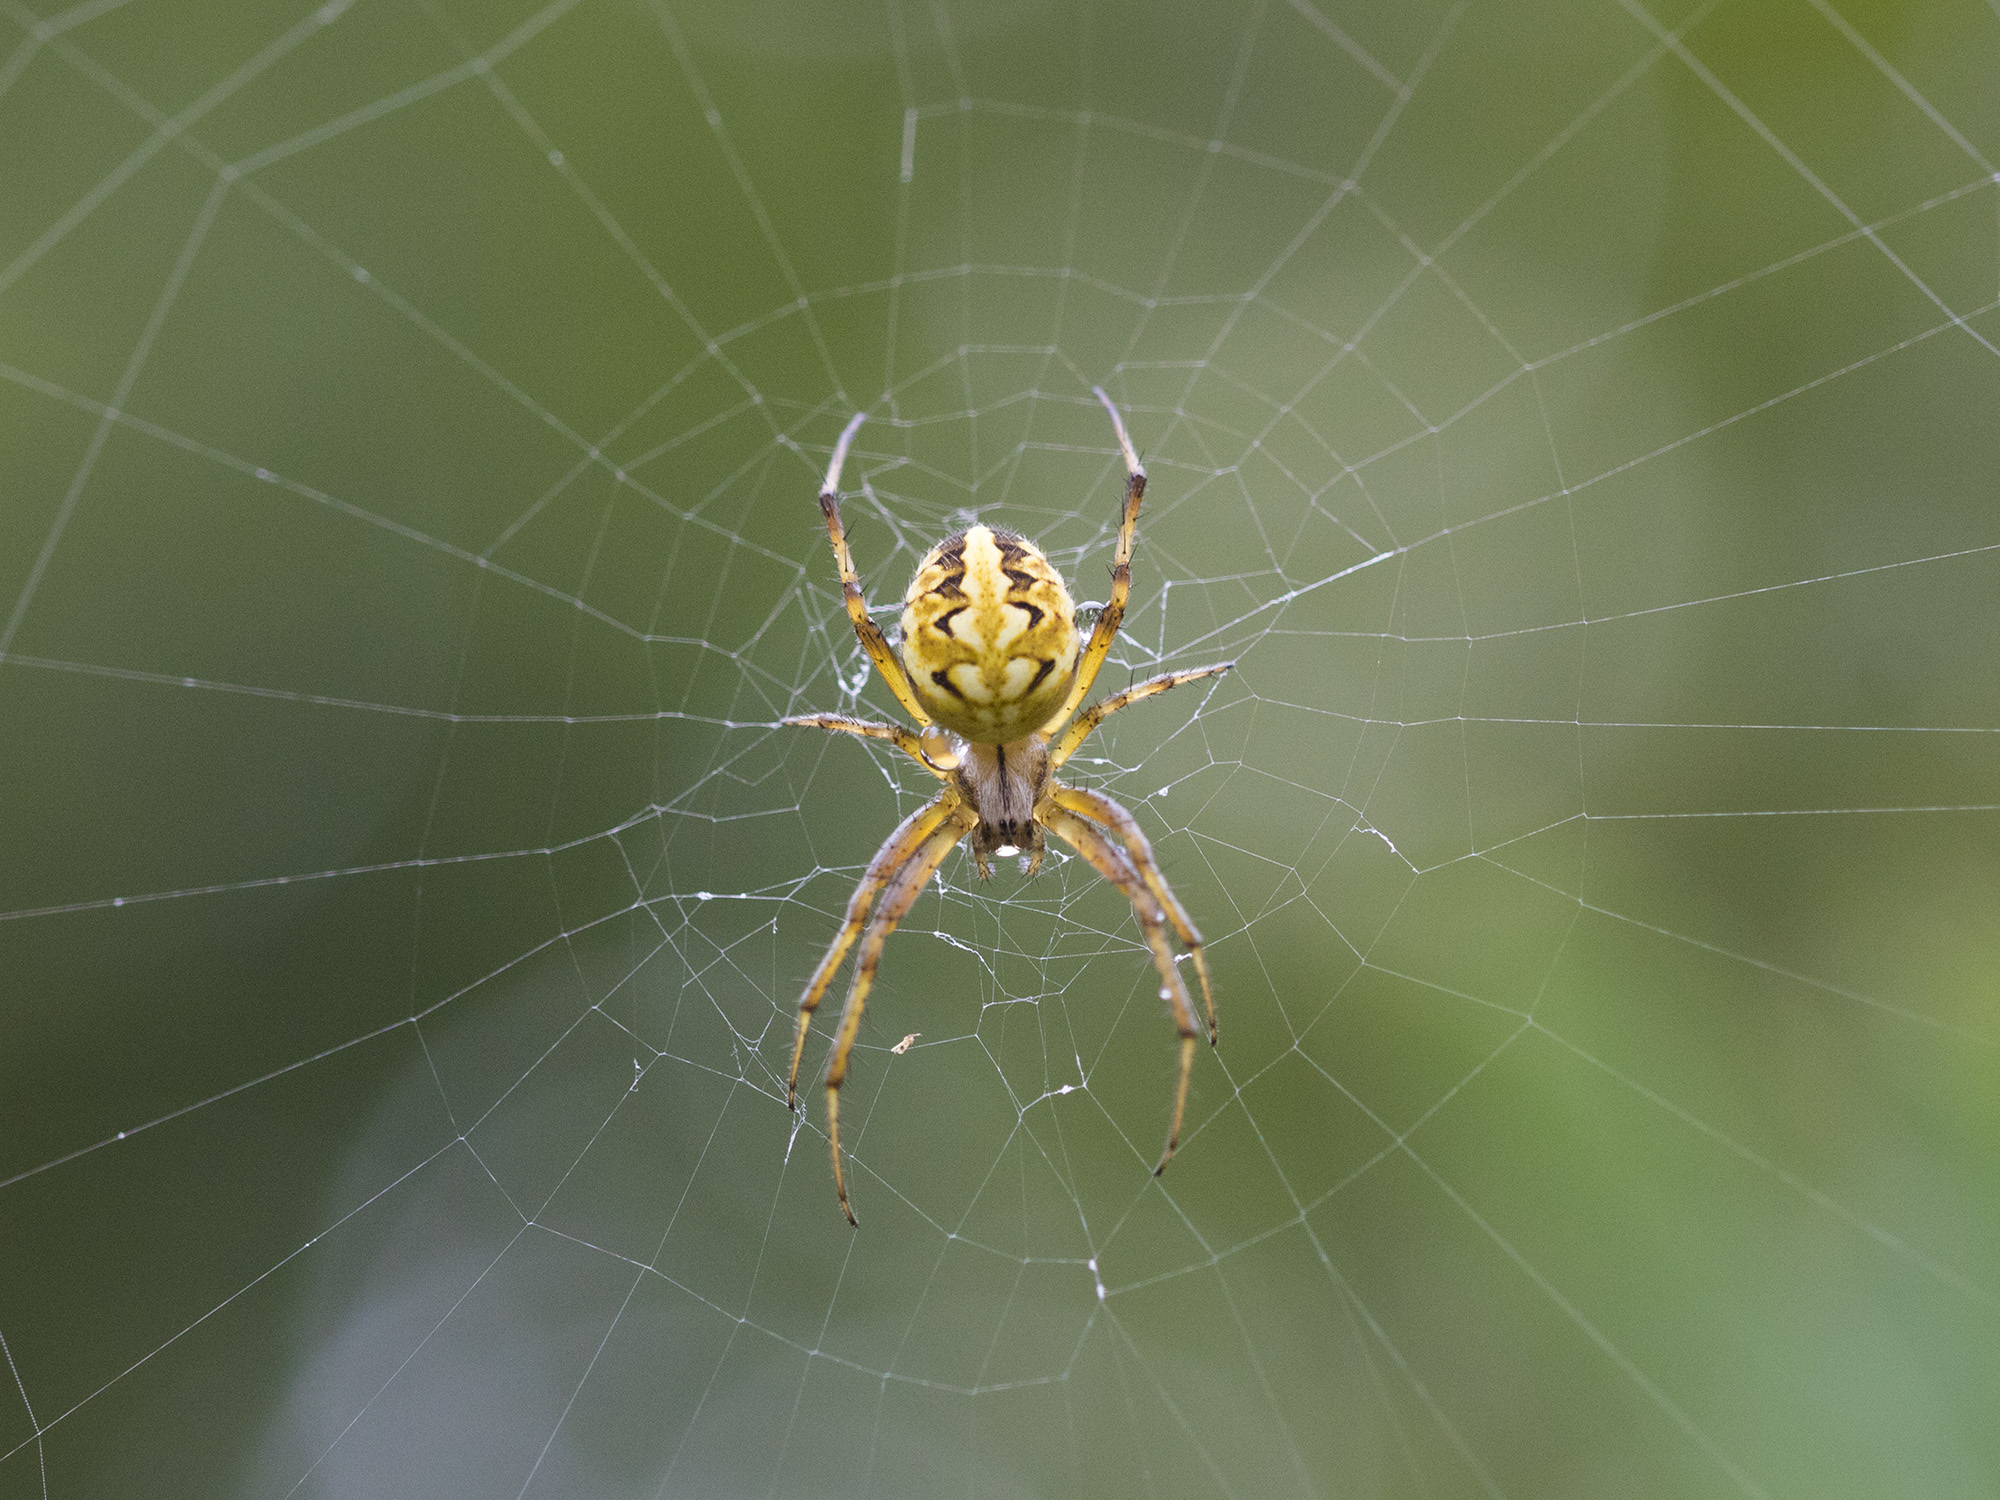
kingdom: Animalia
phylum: Arthropoda
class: Arachnida
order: Araneae
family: Araneidae
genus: Neoscona
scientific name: Neoscona adianta
